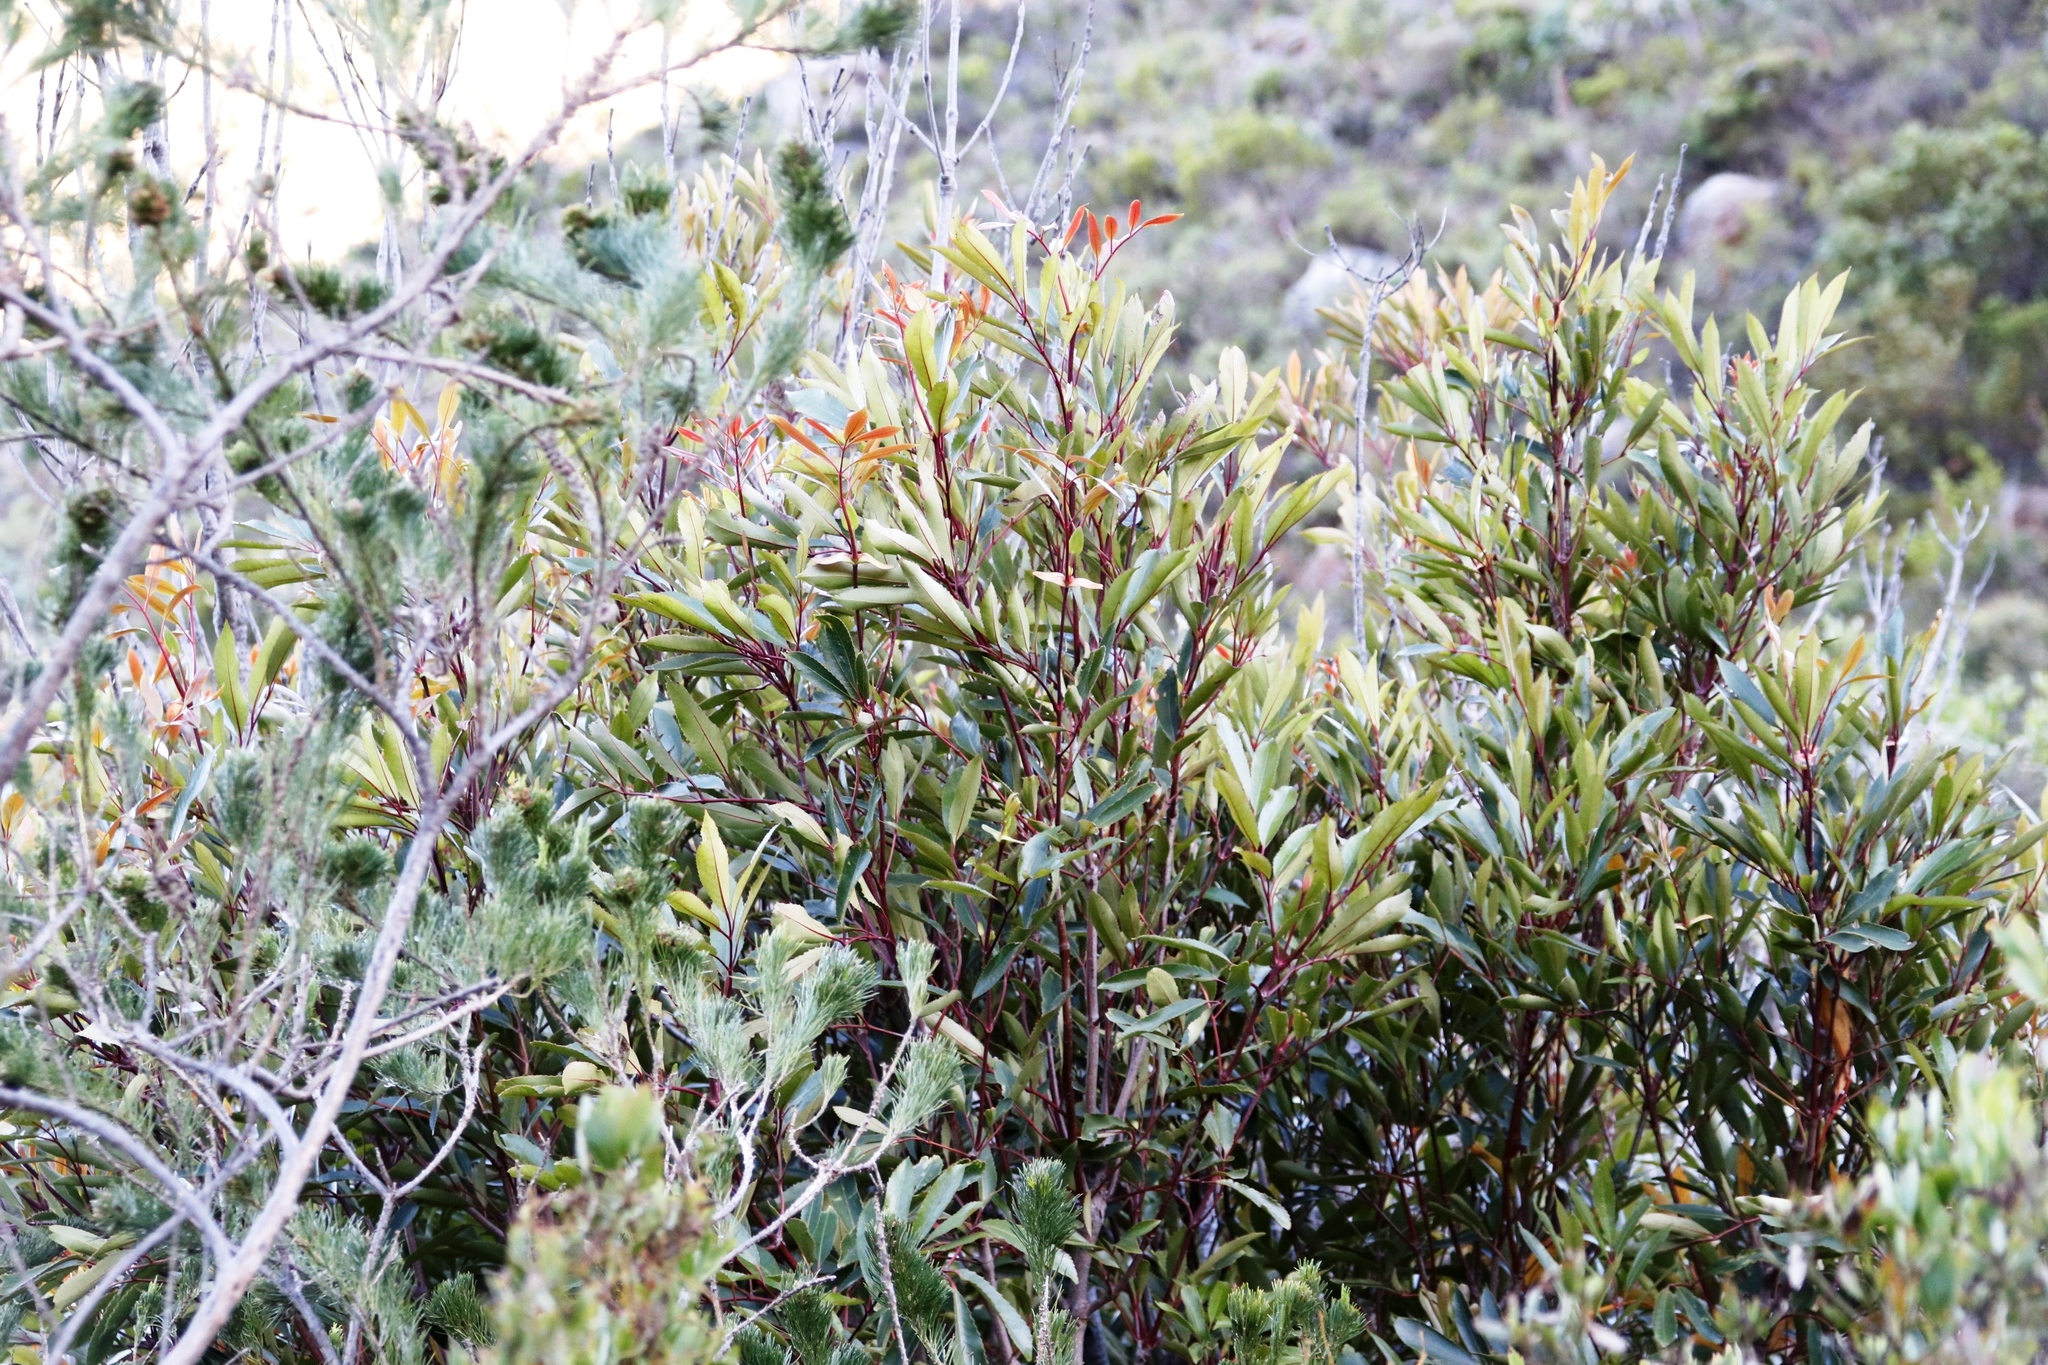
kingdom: Plantae
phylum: Tracheophyta
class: Magnoliopsida
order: Oxalidales
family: Cunoniaceae
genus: Cunonia
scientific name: Cunonia capensis
